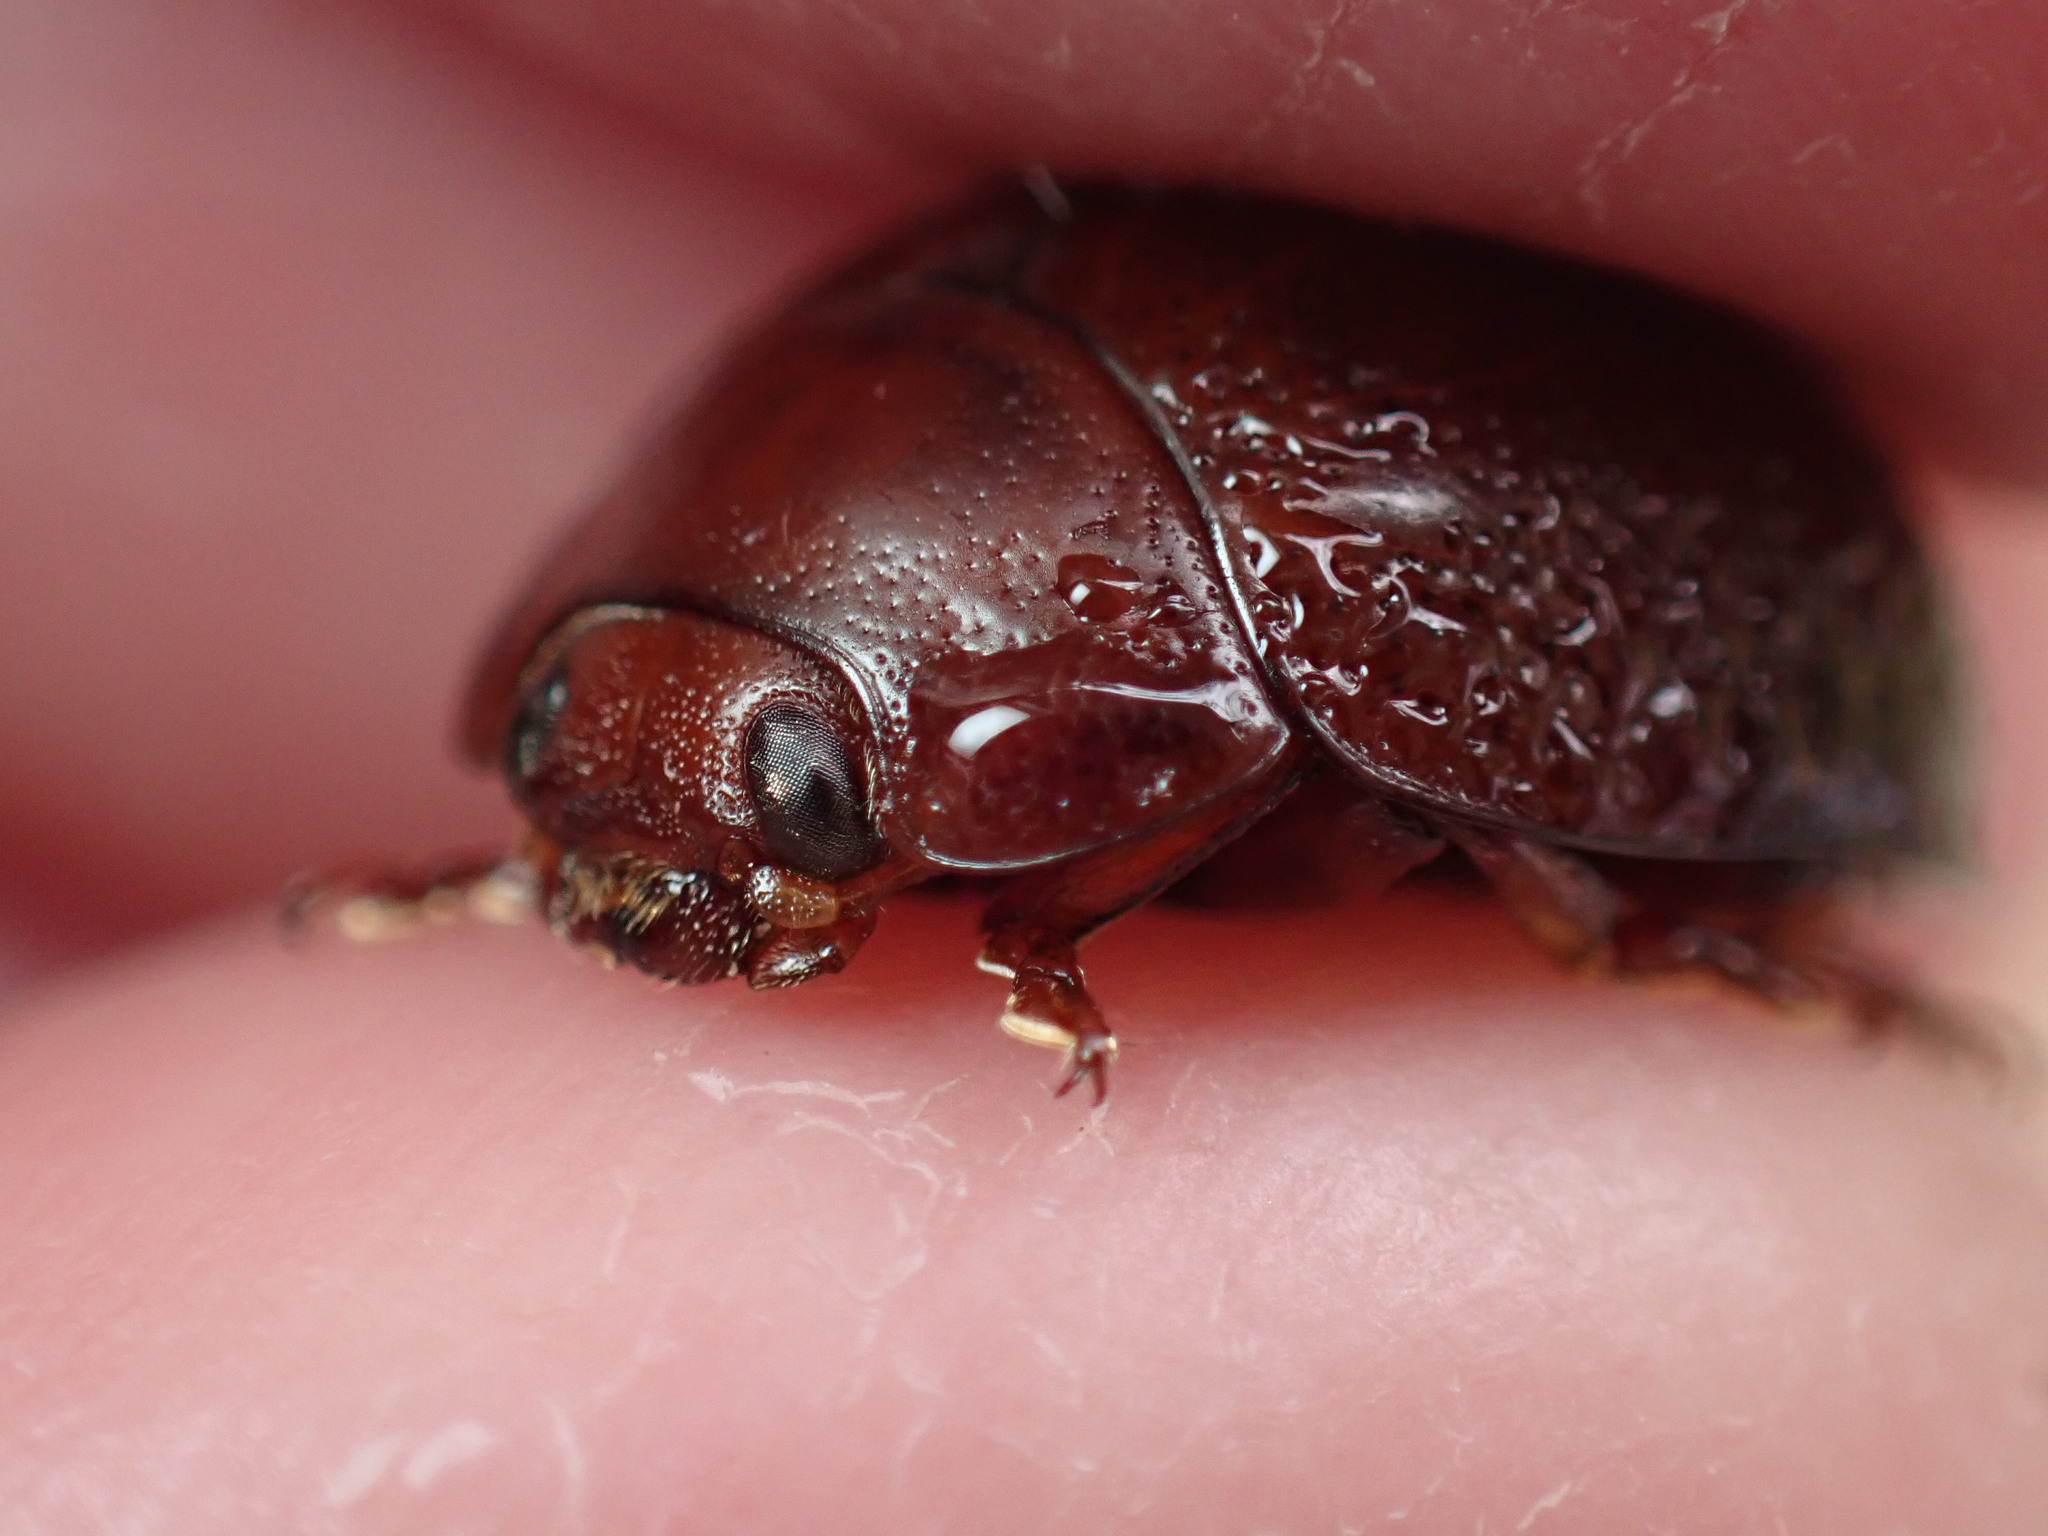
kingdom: Animalia
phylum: Arthropoda
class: Insecta
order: Coleoptera
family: Chrysomelidae
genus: Dicranosterna
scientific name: Dicranosterna
